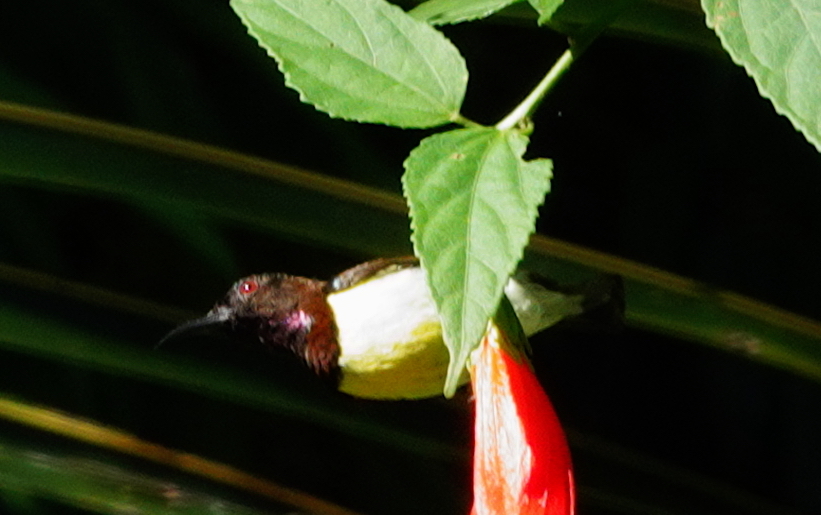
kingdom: Animalia
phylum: Chordata
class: Aves
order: Passeriformes
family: Nectariniidae
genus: Leptocoma
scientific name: Leptocoma zeylonica
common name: Purple-rumped sunbird
